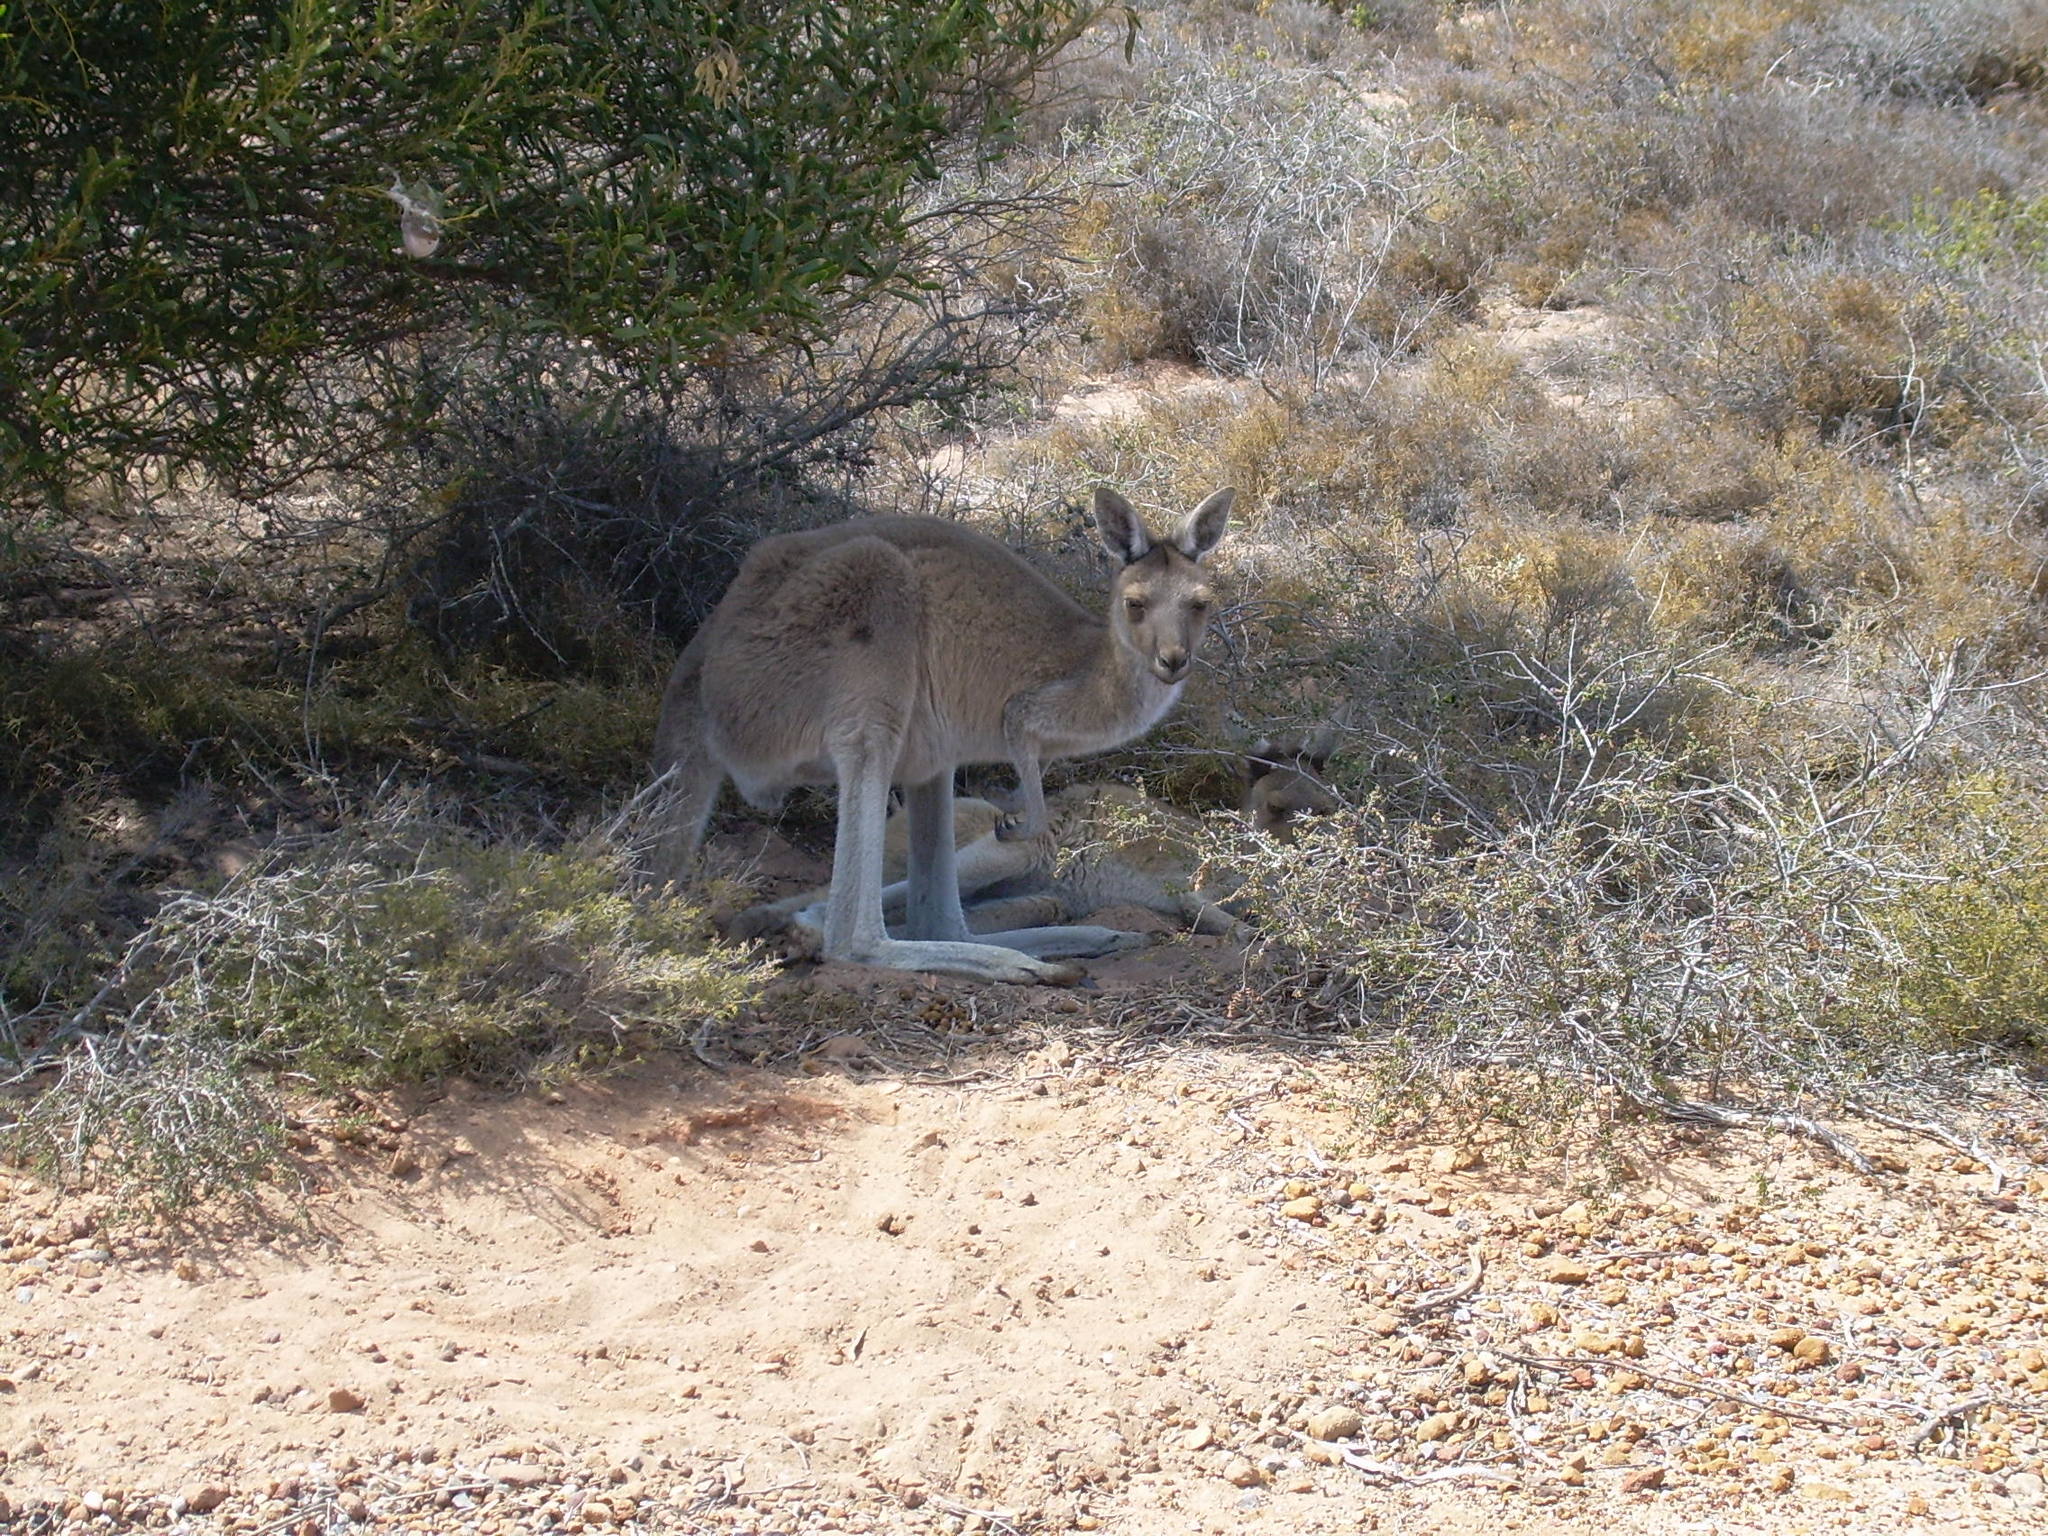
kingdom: Animalia
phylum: Chordata
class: Mammalia
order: Diprotodontia
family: Macropodidae
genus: Macropus
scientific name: Macropus fuliginosus
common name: Western grey kangaroo
